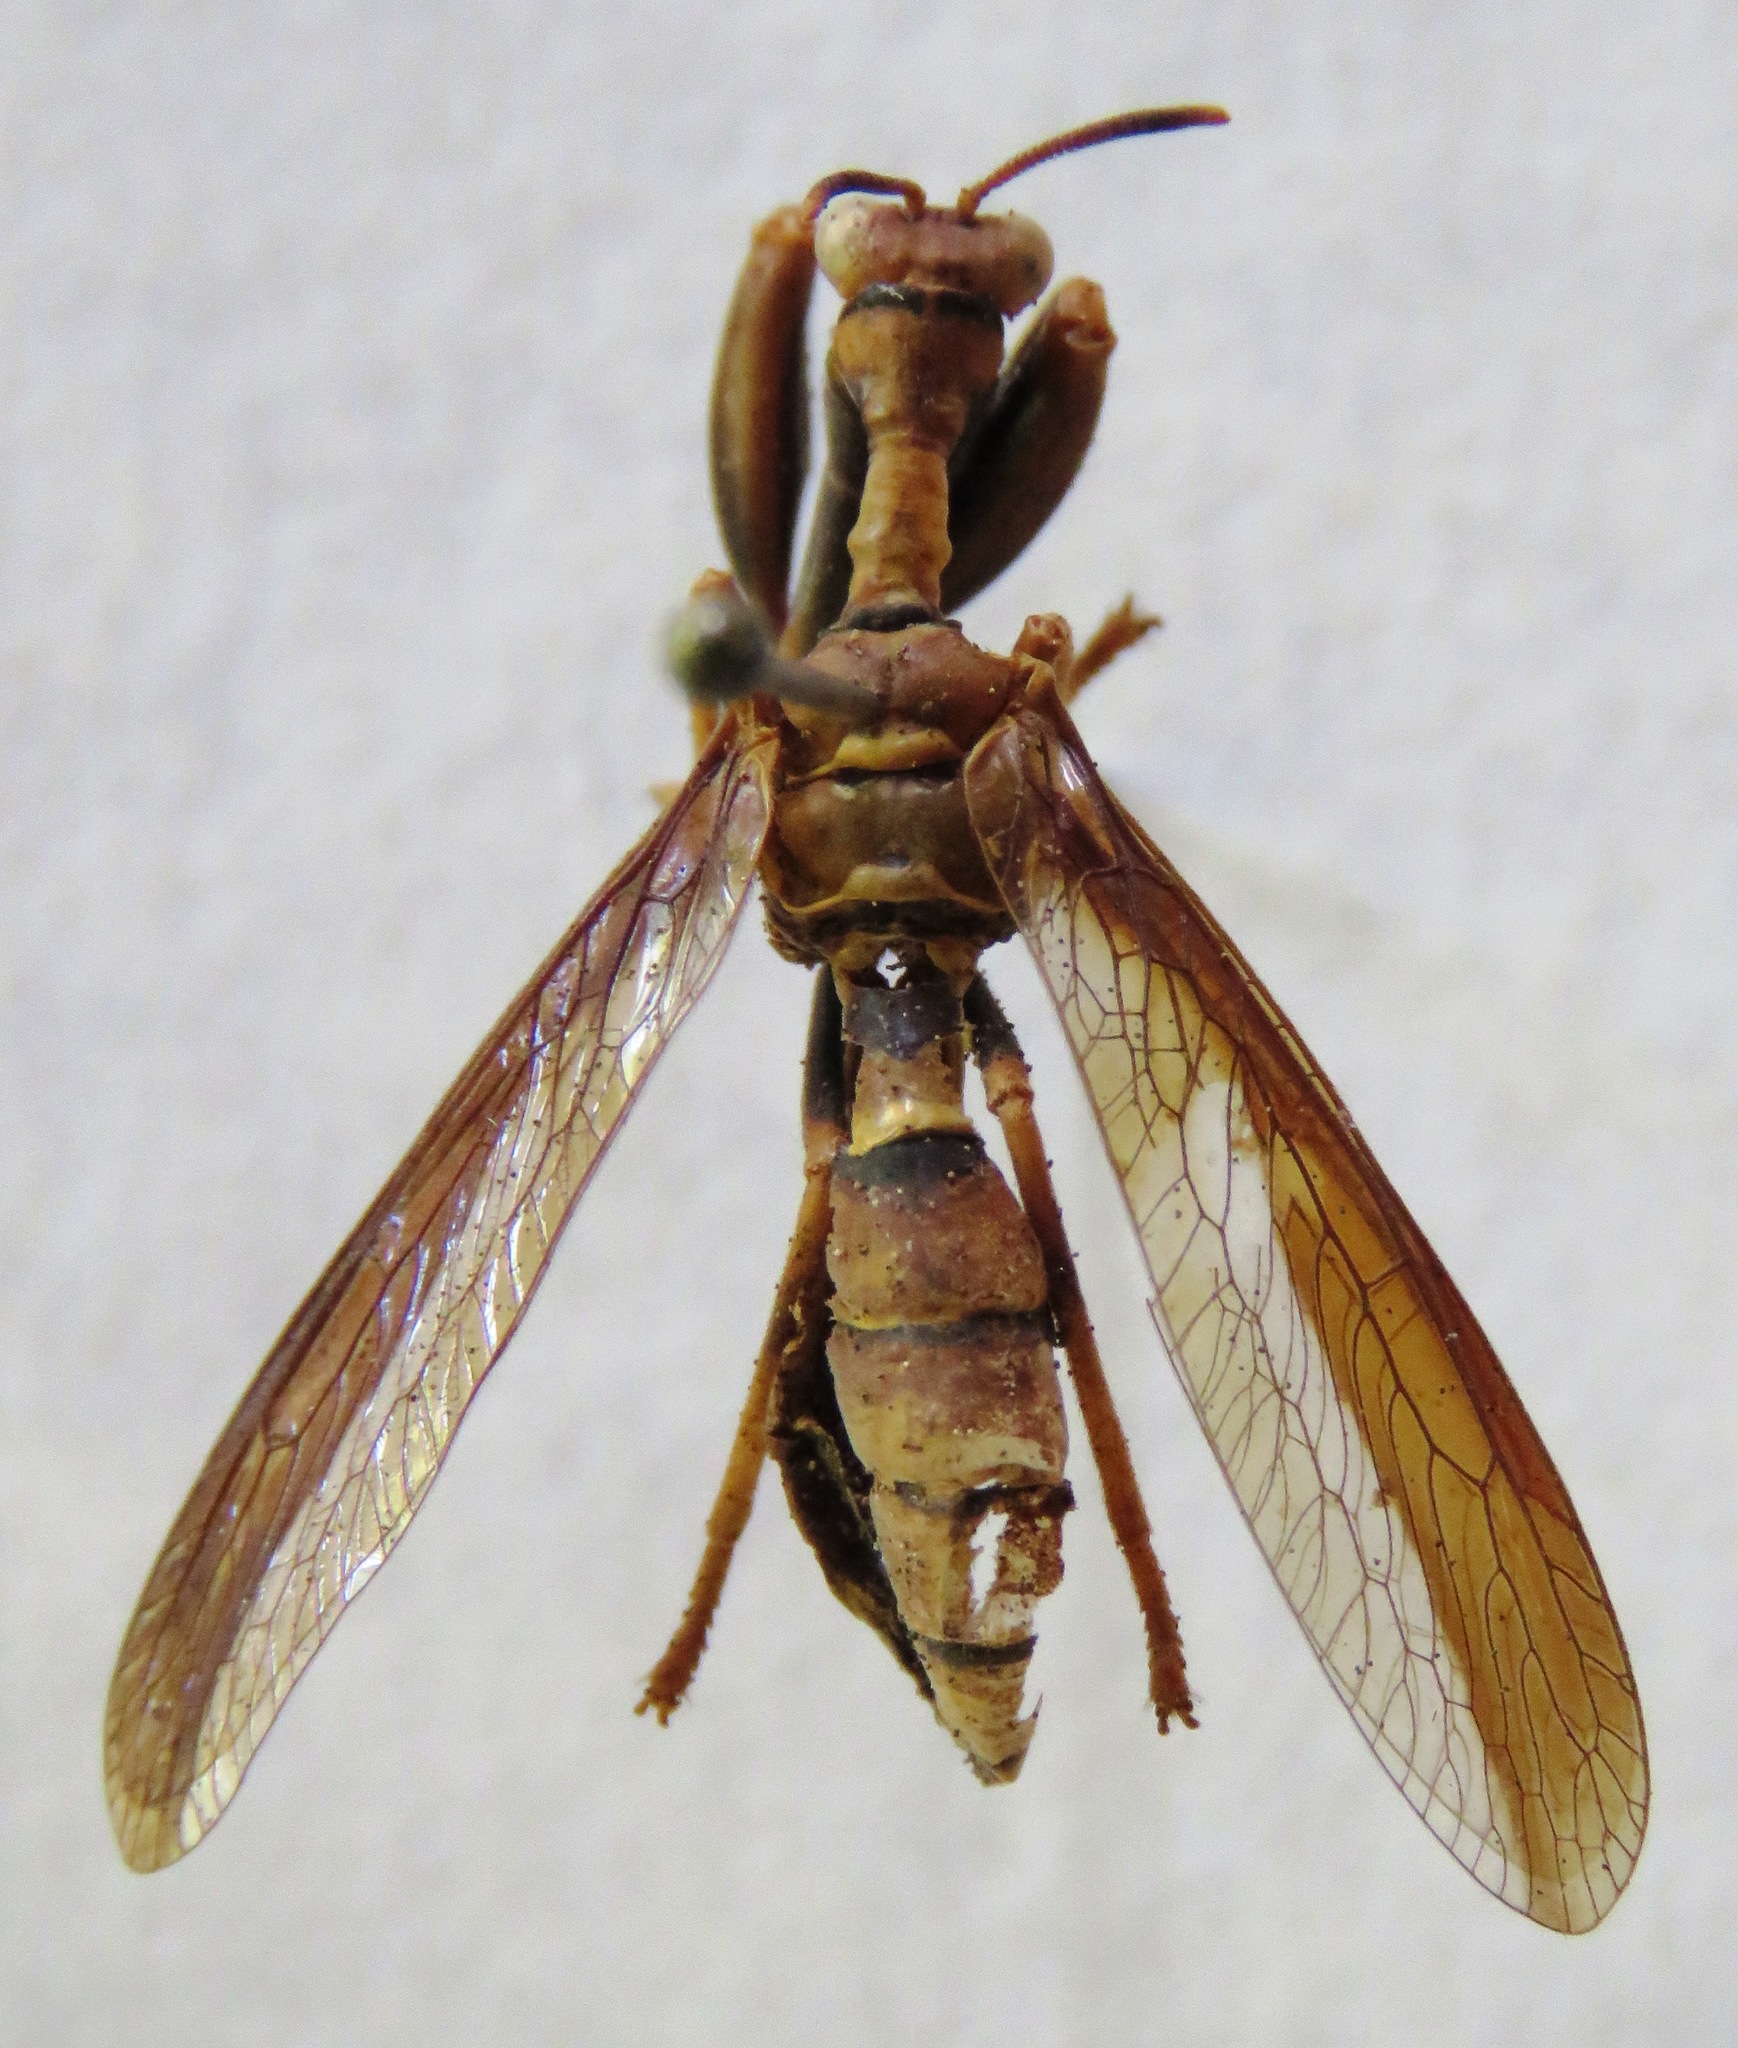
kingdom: Animalia
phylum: Arthropoda
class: Insecta
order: Neuroptera
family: Mantispidae
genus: Climaciella
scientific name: Climaciella brunnea
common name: Brown wasp mantidfly
